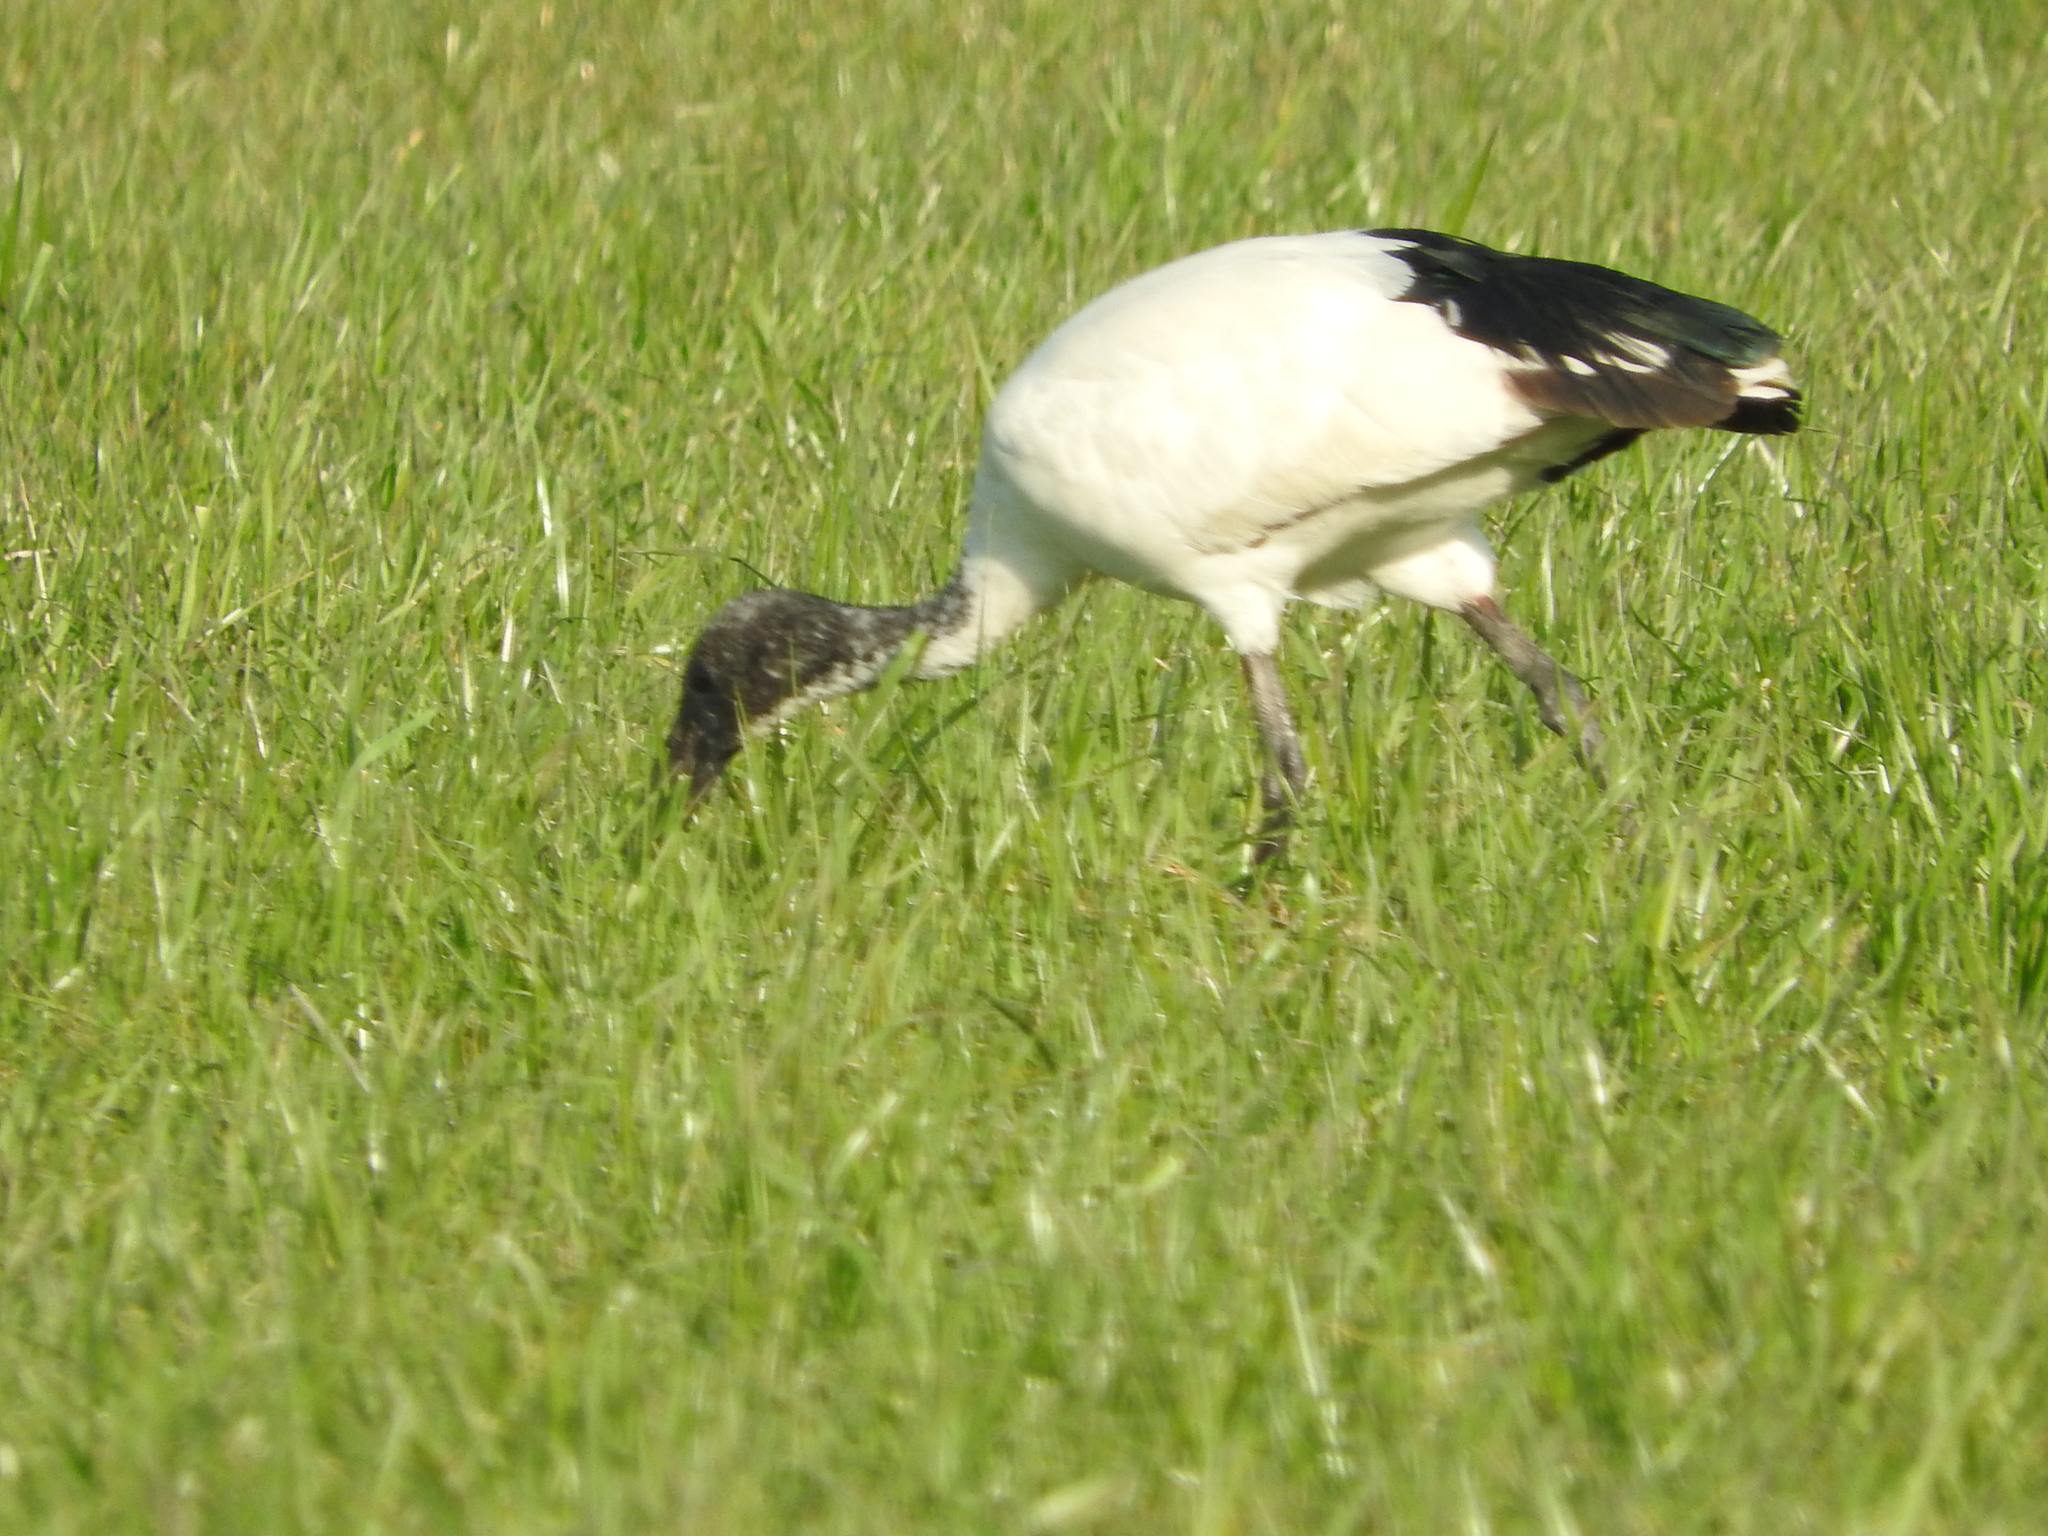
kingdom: Animalia
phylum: Chordata
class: Aves
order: Pelecaniformes
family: Threskiornithidae
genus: Threskiornis
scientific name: Threskiornis aethiopicus
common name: Sacred ibis
